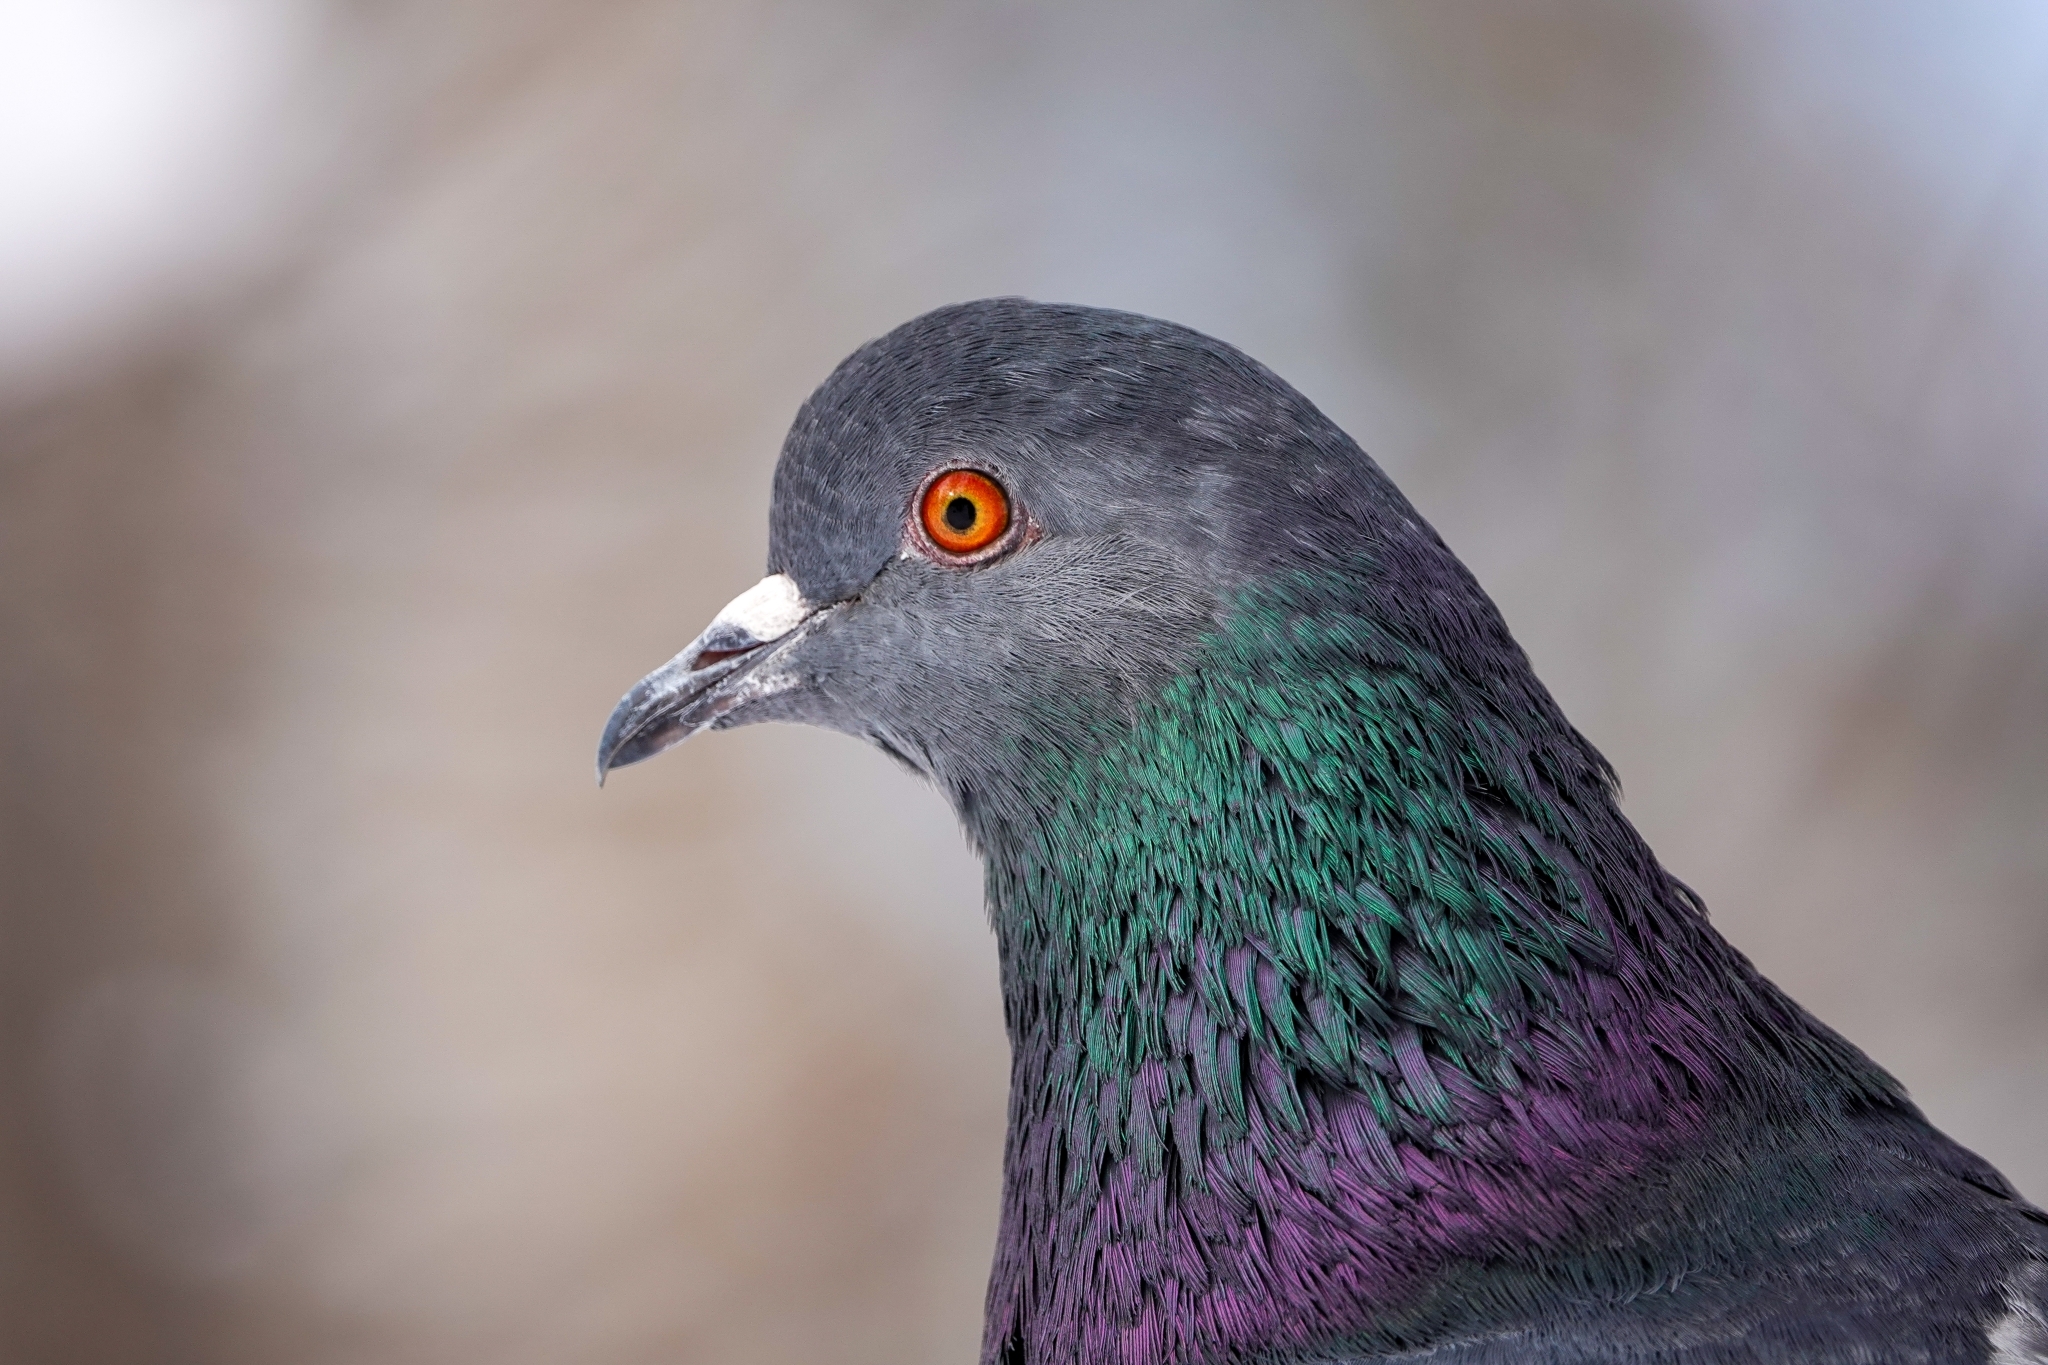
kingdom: Animalia
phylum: Chordata
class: Aves
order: Columbiformes
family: Columbidae
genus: Columba
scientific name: Columba livia
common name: Rock pigeon
